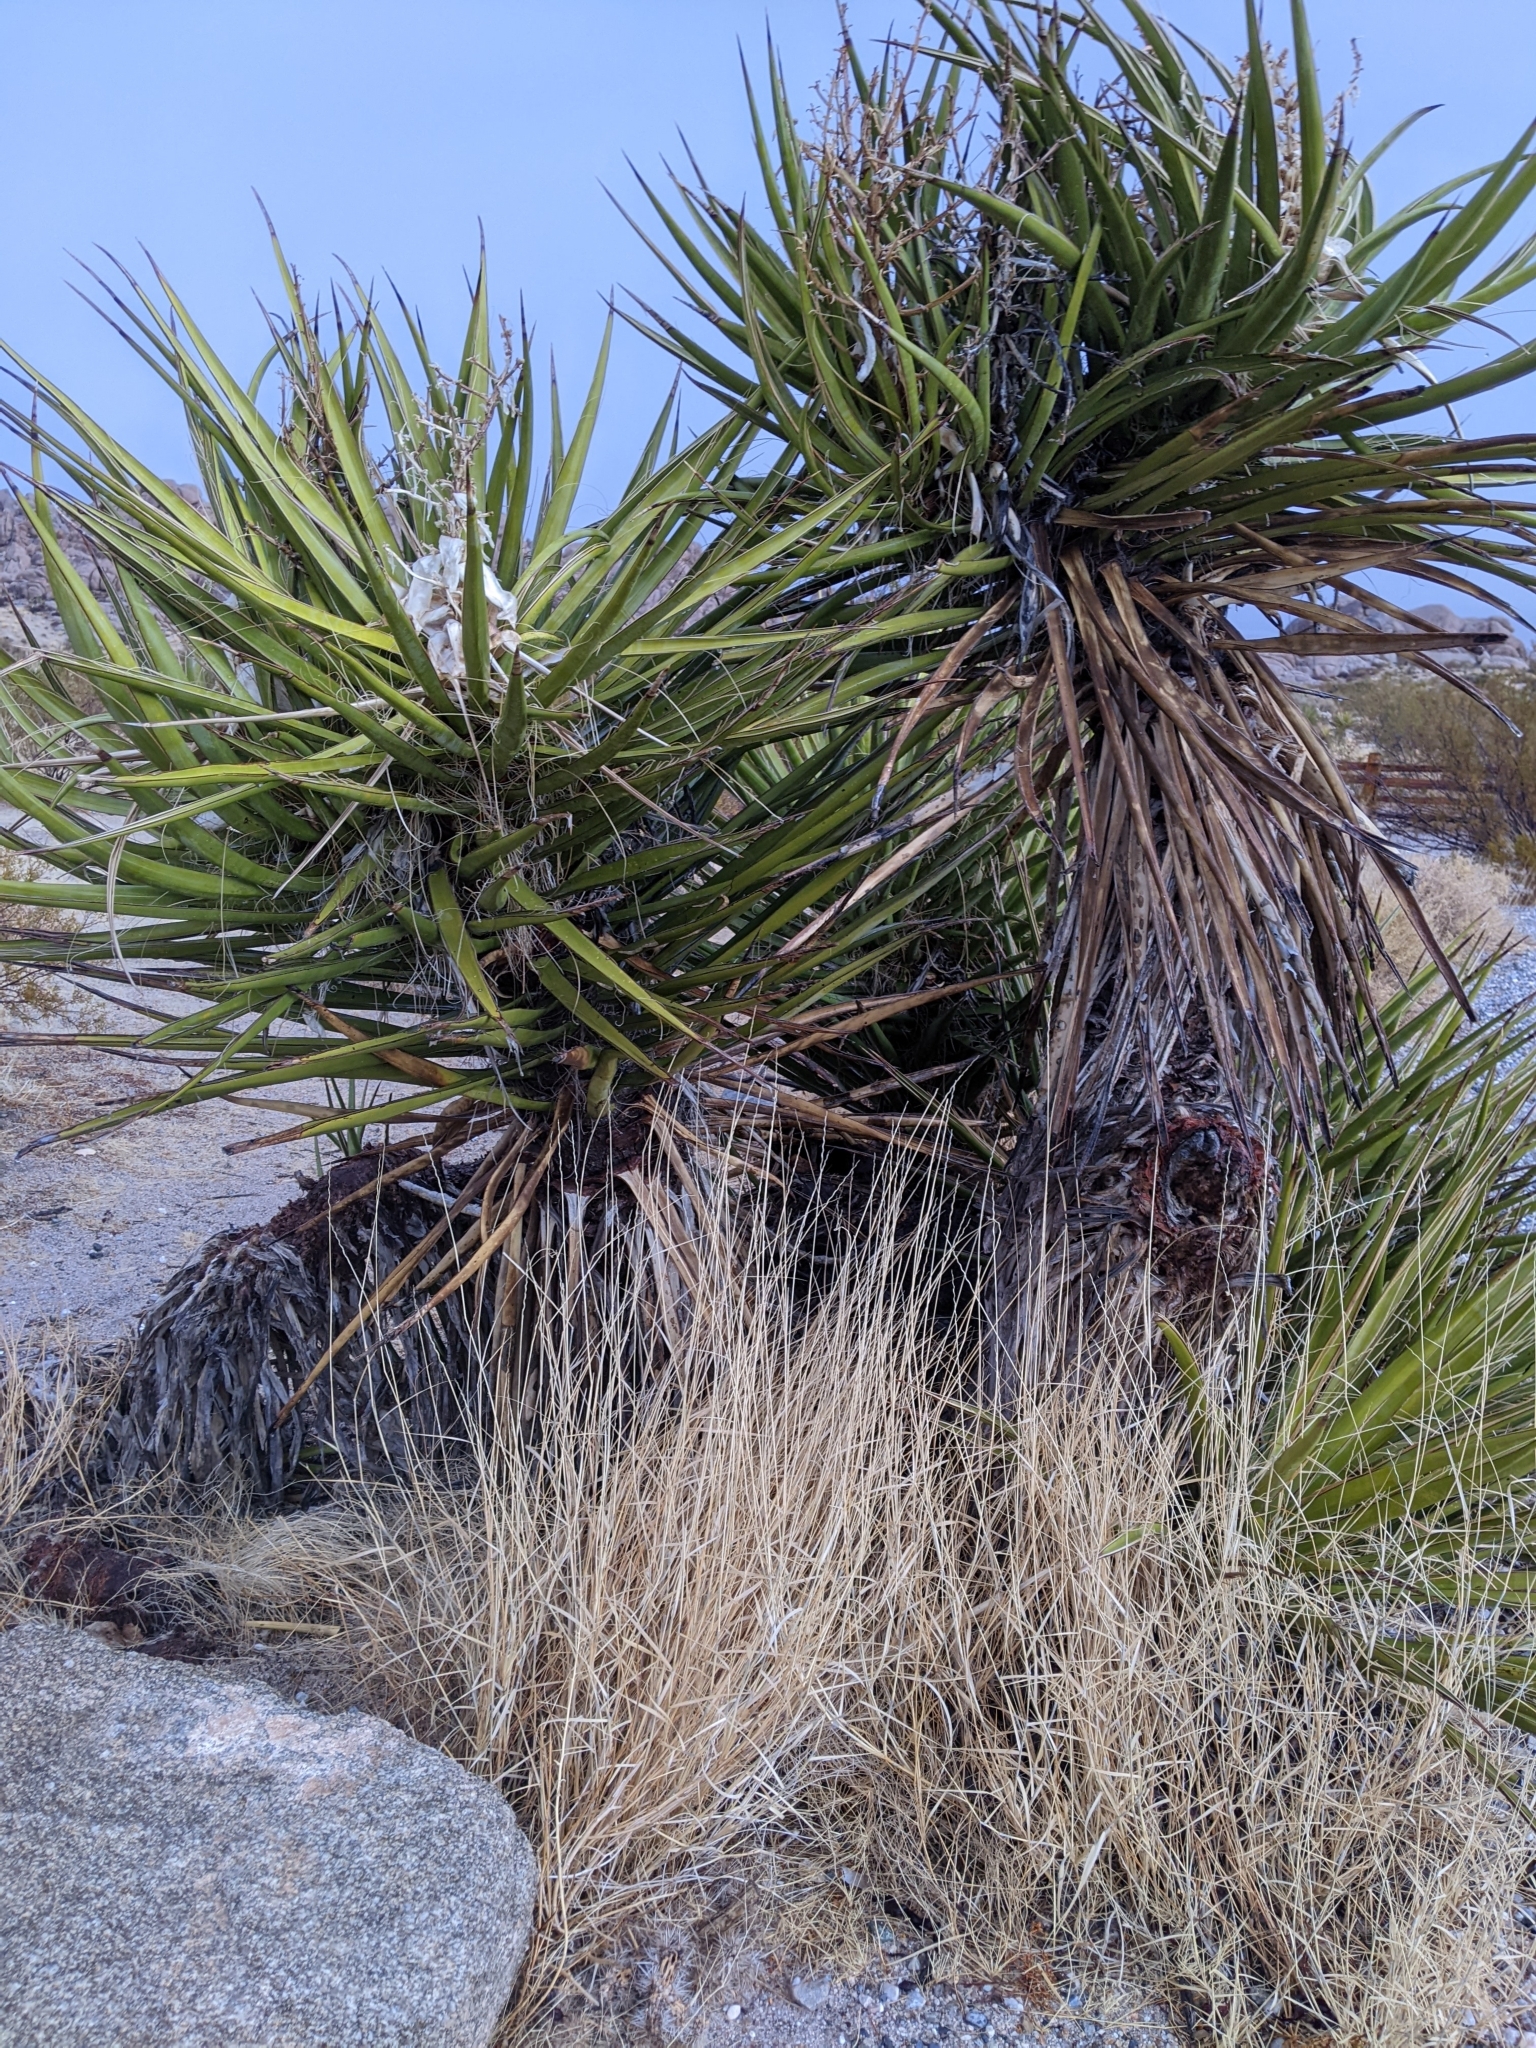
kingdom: Plantae
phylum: Tracheophyta
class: Liliopsida
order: Asparagales
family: Asparagaceae
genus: Yucca
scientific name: Yucca schidigera
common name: Mojave yucca
